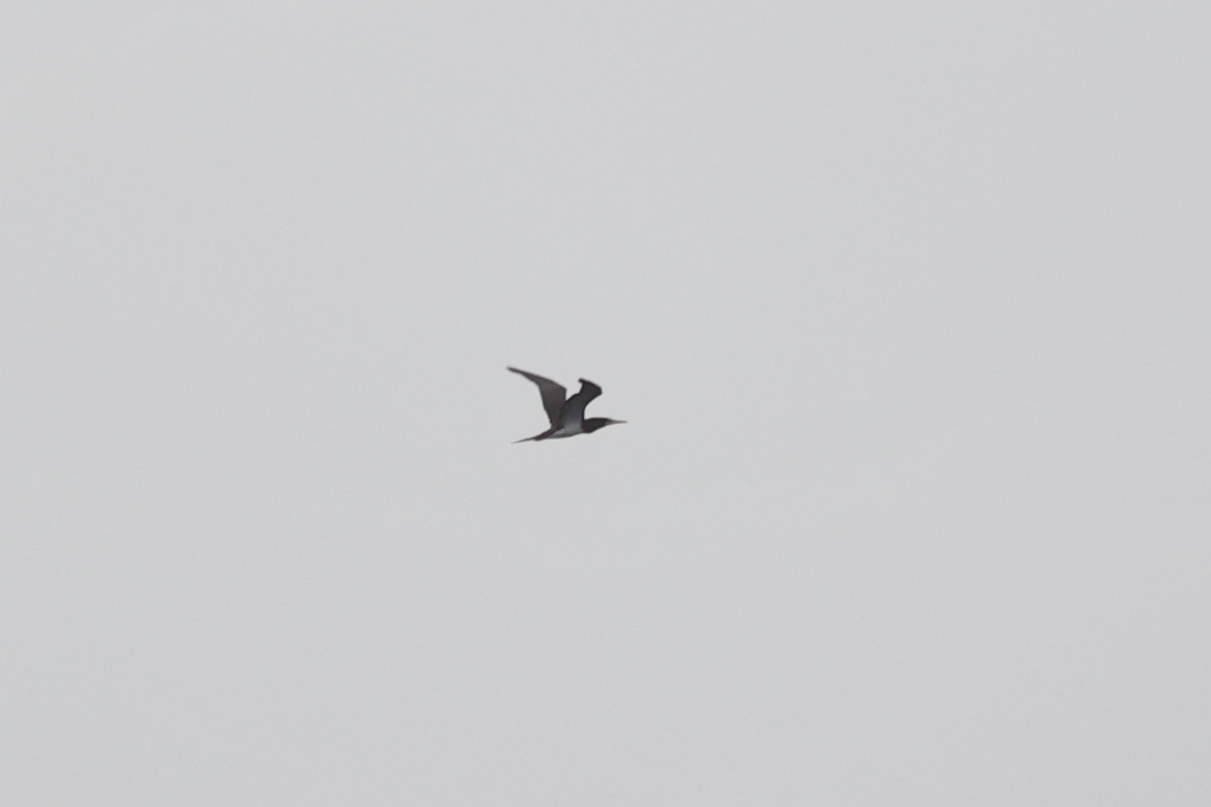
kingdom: Animalia
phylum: Chordata
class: Aves
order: Suliformes
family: Sulidae
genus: Sula
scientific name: Sula leucogaster
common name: Brown booby
